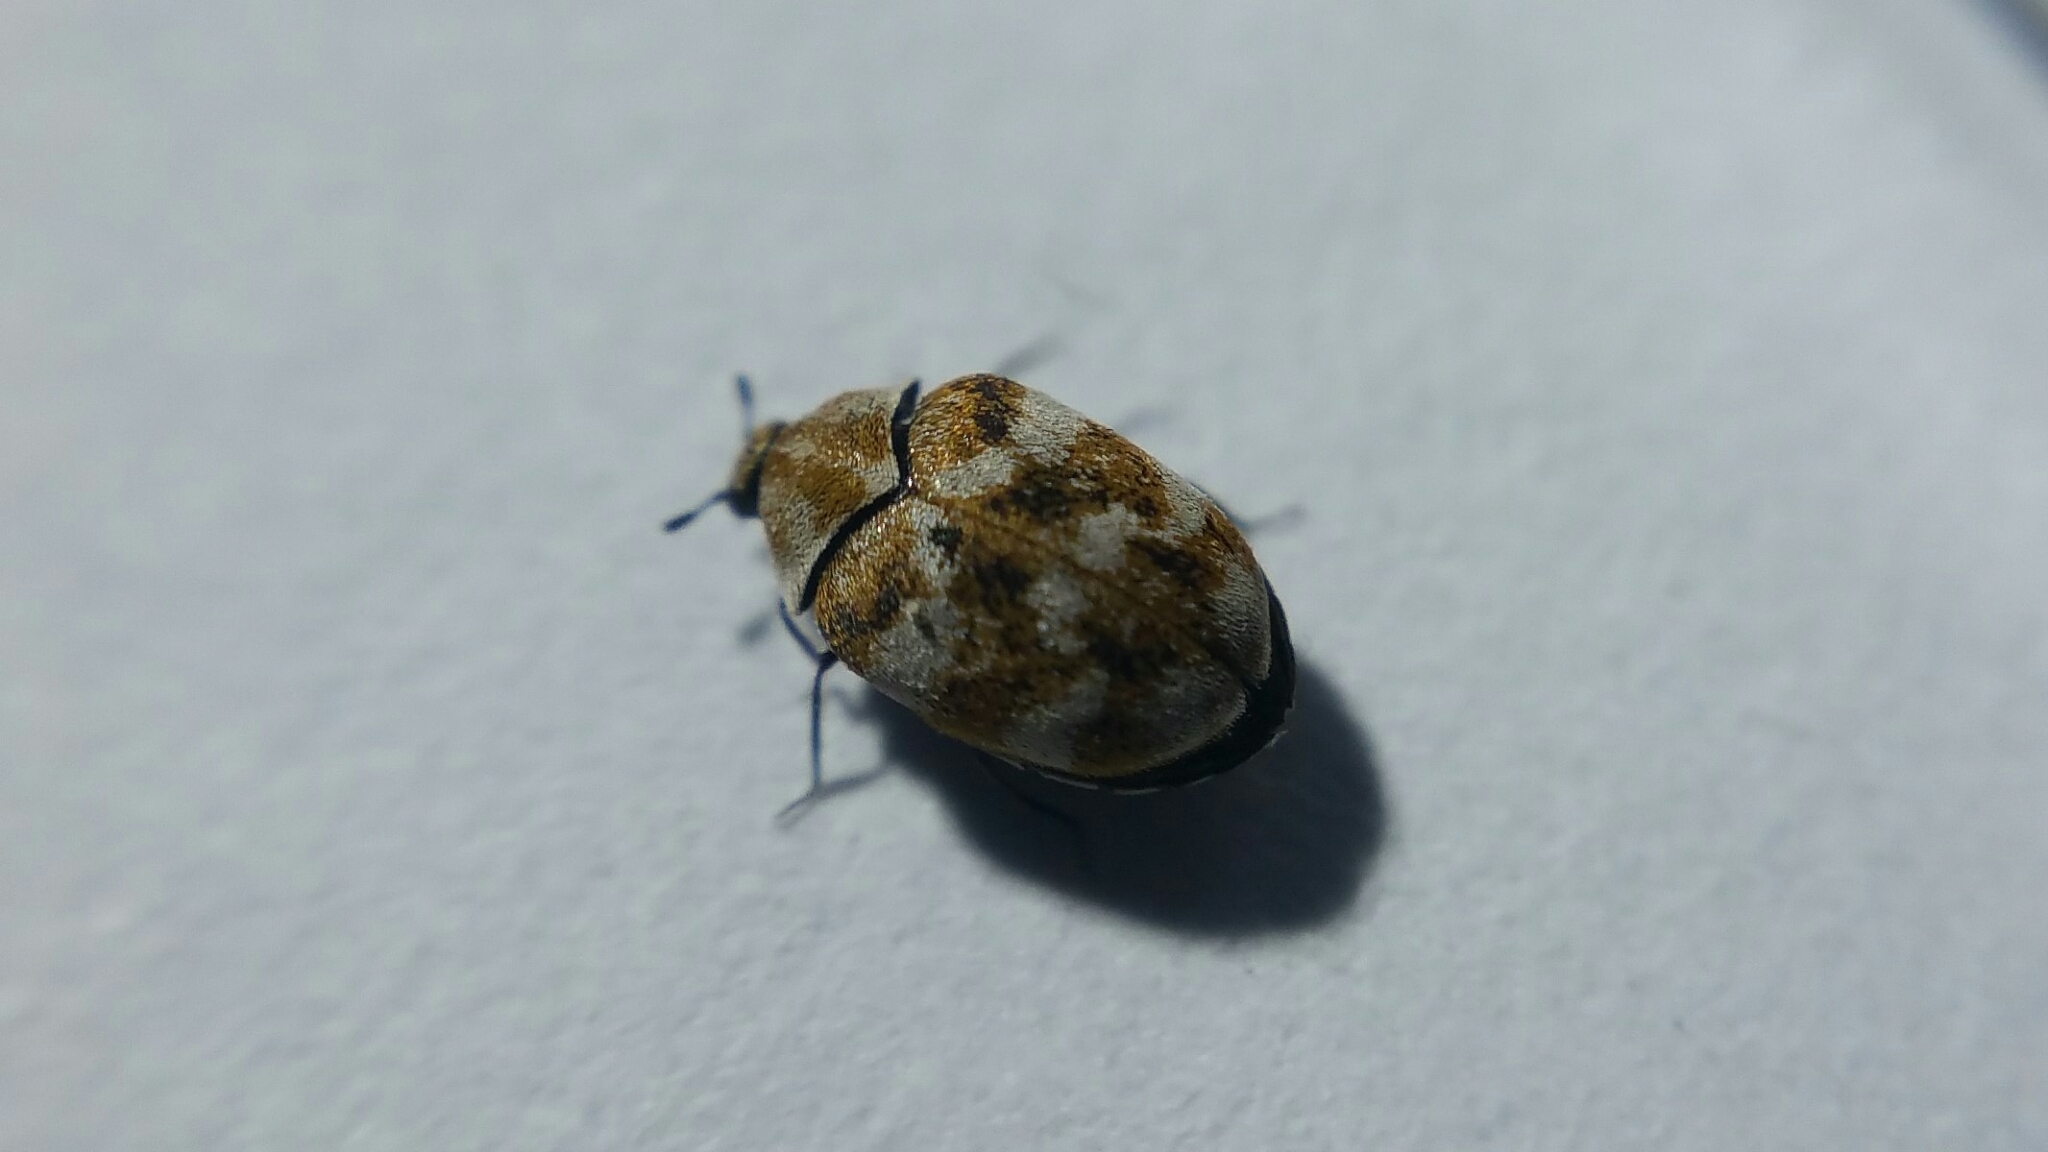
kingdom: Animalia
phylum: Arthropoda
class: Insecta
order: Coleoptera
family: Dermestidae
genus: Anthrenus
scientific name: Anthrenus verbasci
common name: Varied carpet beetle
